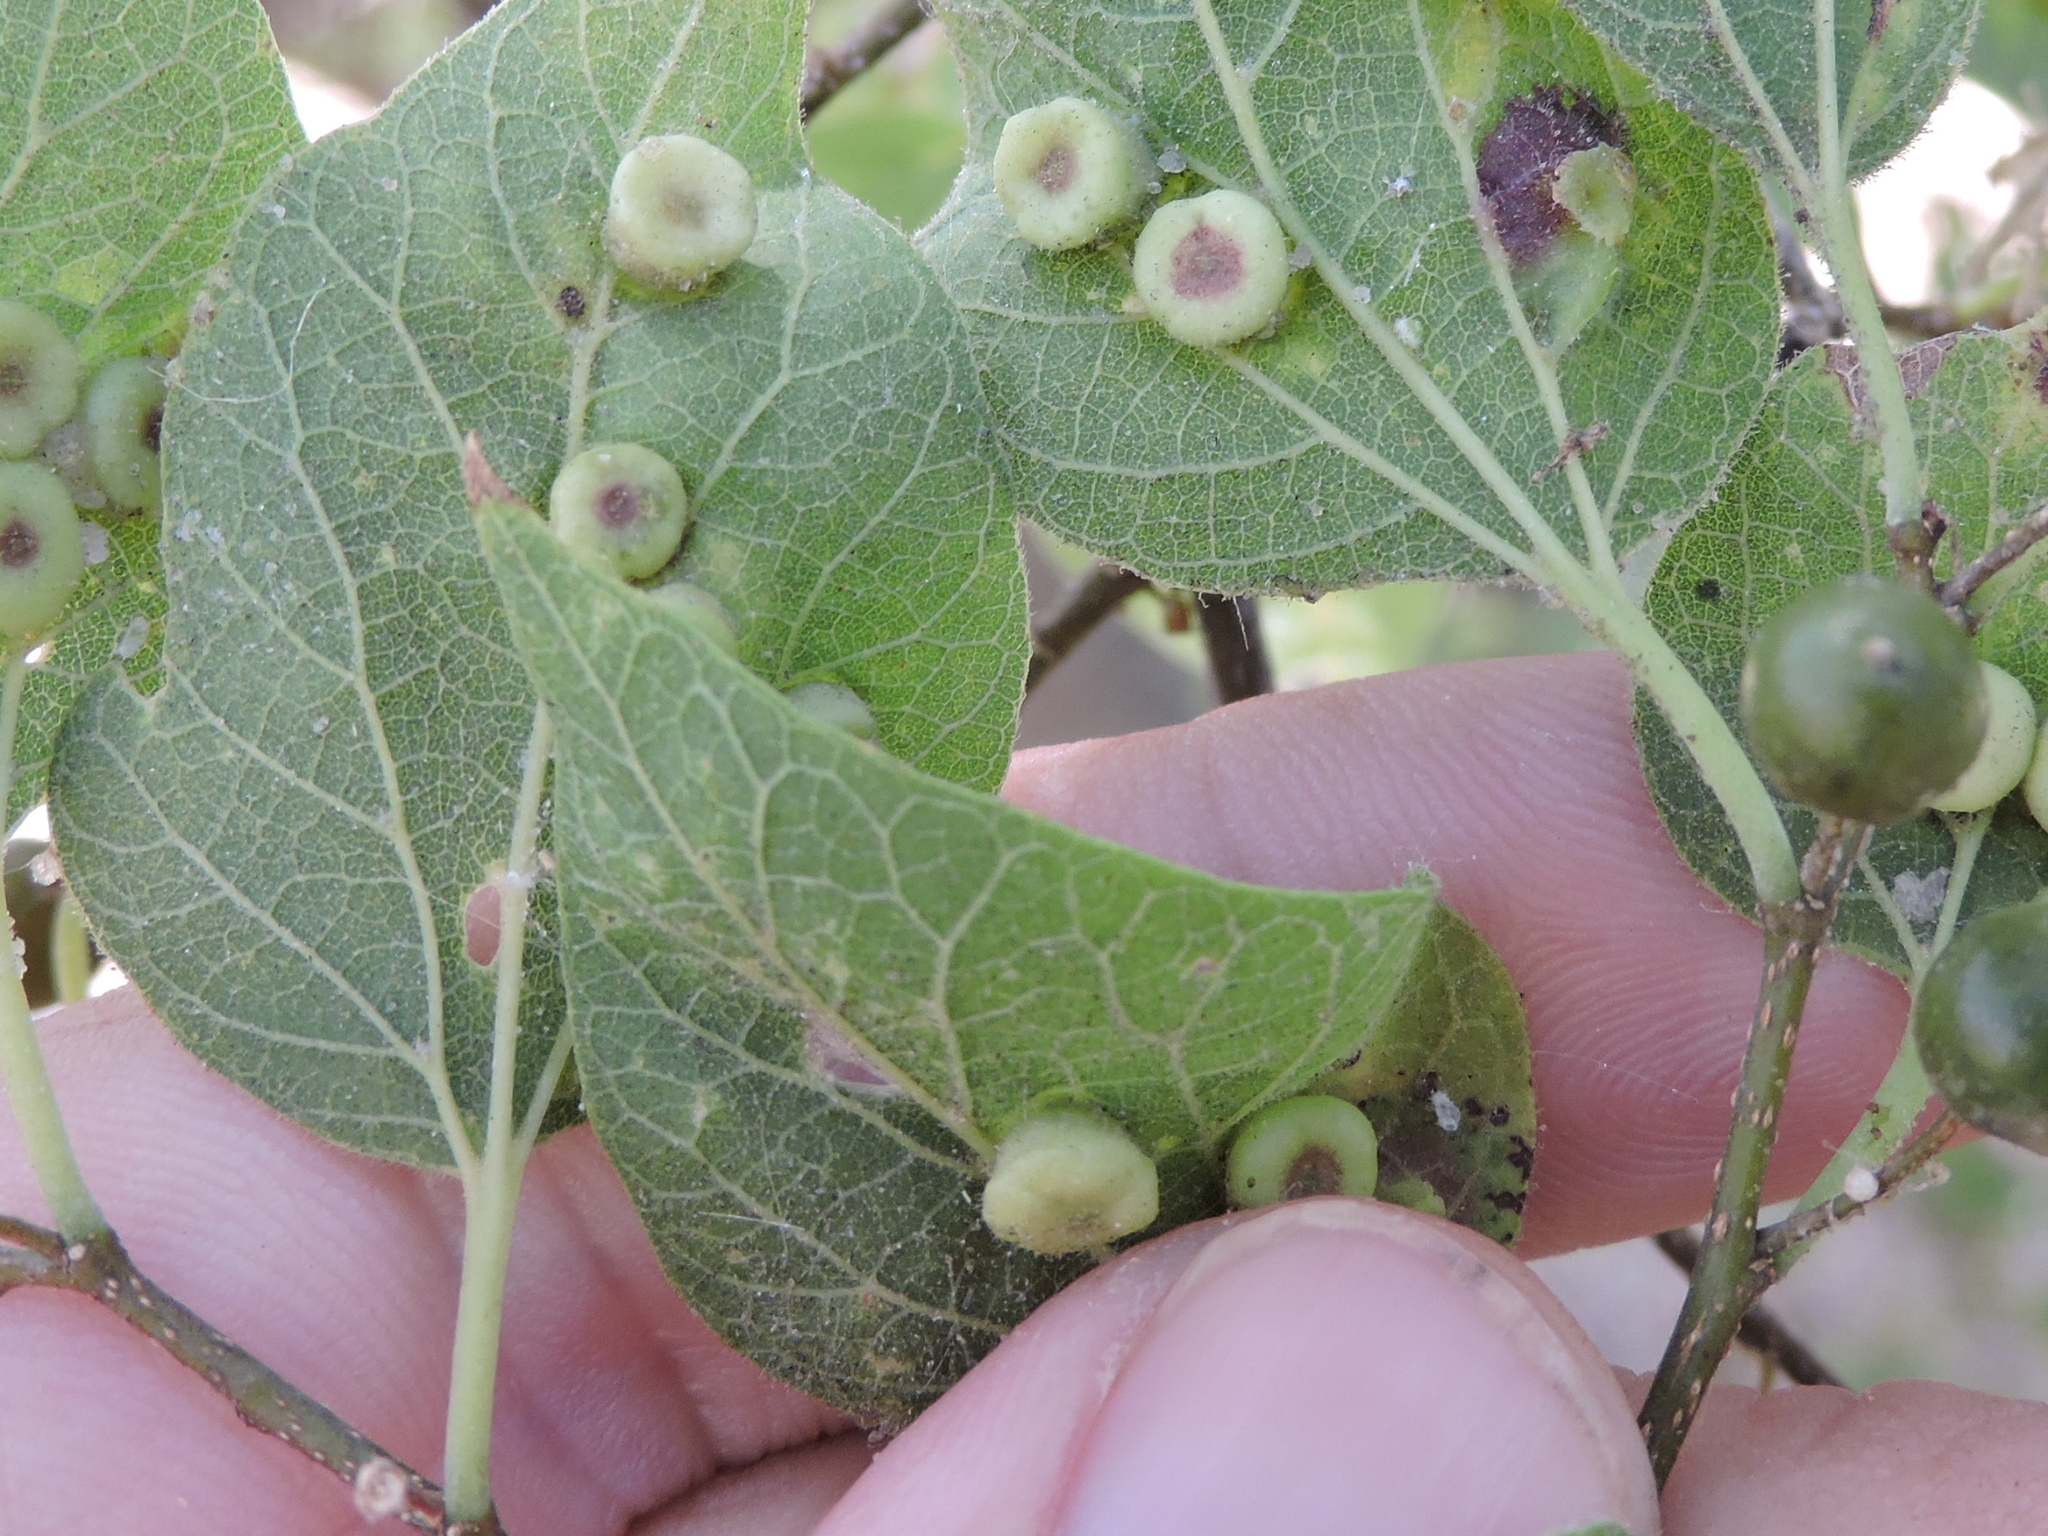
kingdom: Animalia
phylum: Arthropoda
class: Insecta
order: Hemiptera
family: Aphalaridae
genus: Pachypsylla
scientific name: Pachypsylla celtidismamma
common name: Hackberry nipplegall psyllid
